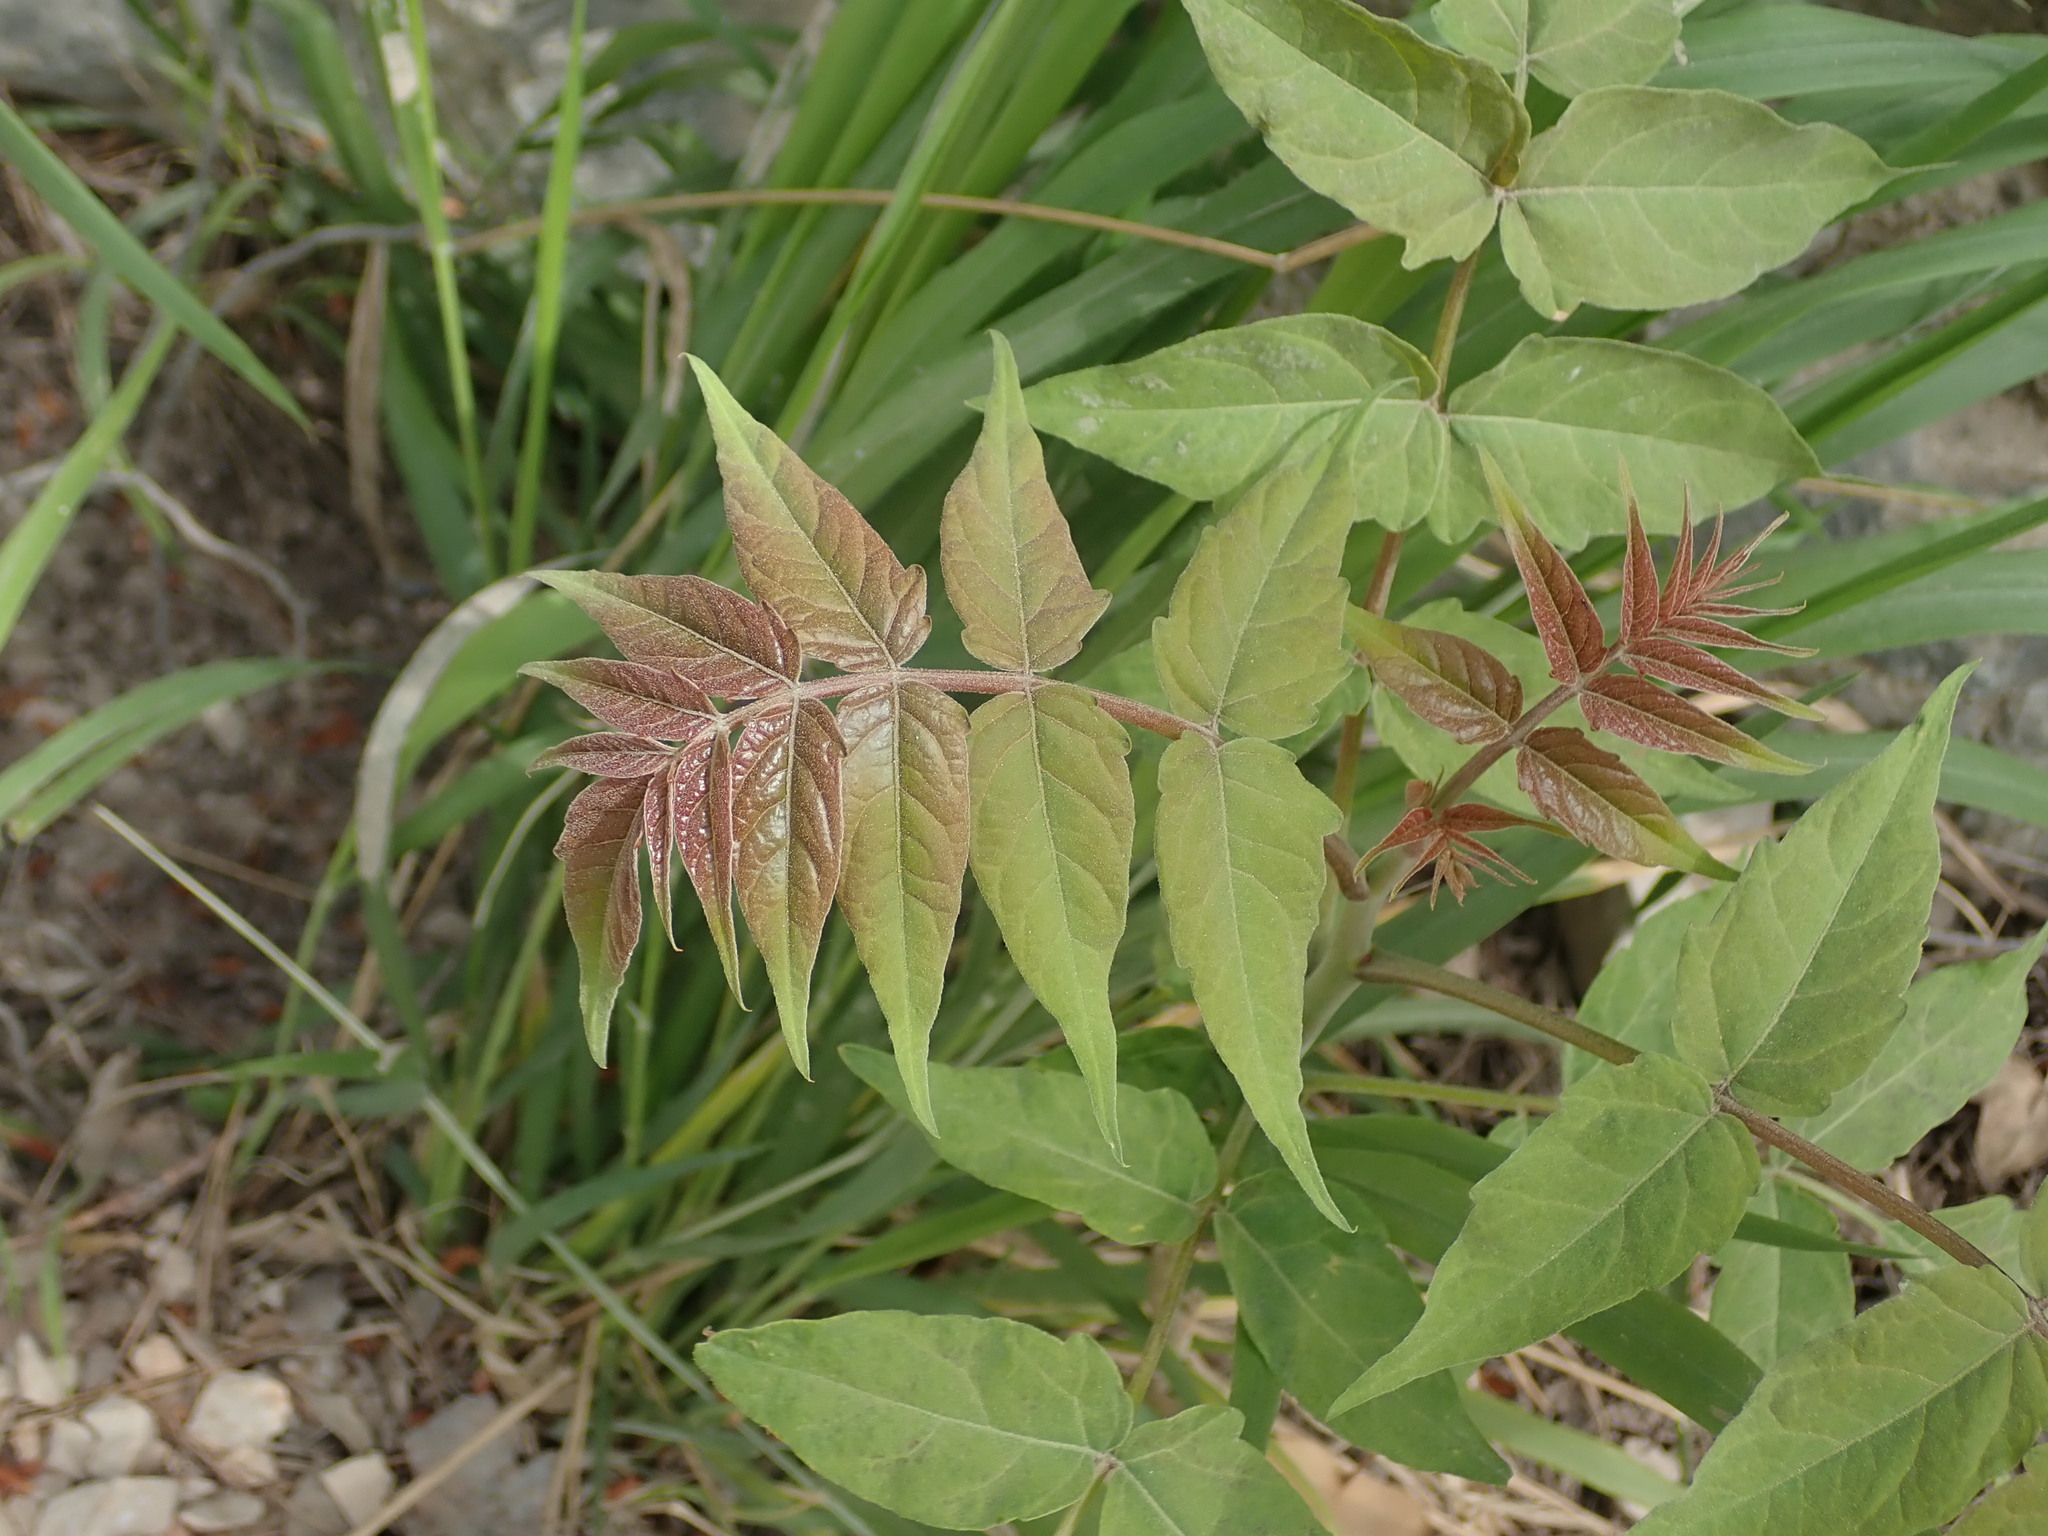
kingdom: Plantae
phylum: Tracheophyta
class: Magnoliopsida
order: Sapindales
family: Simaroubaceae
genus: Ailanthus
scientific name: Ailanthus altissima
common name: Tree-of-heaven
